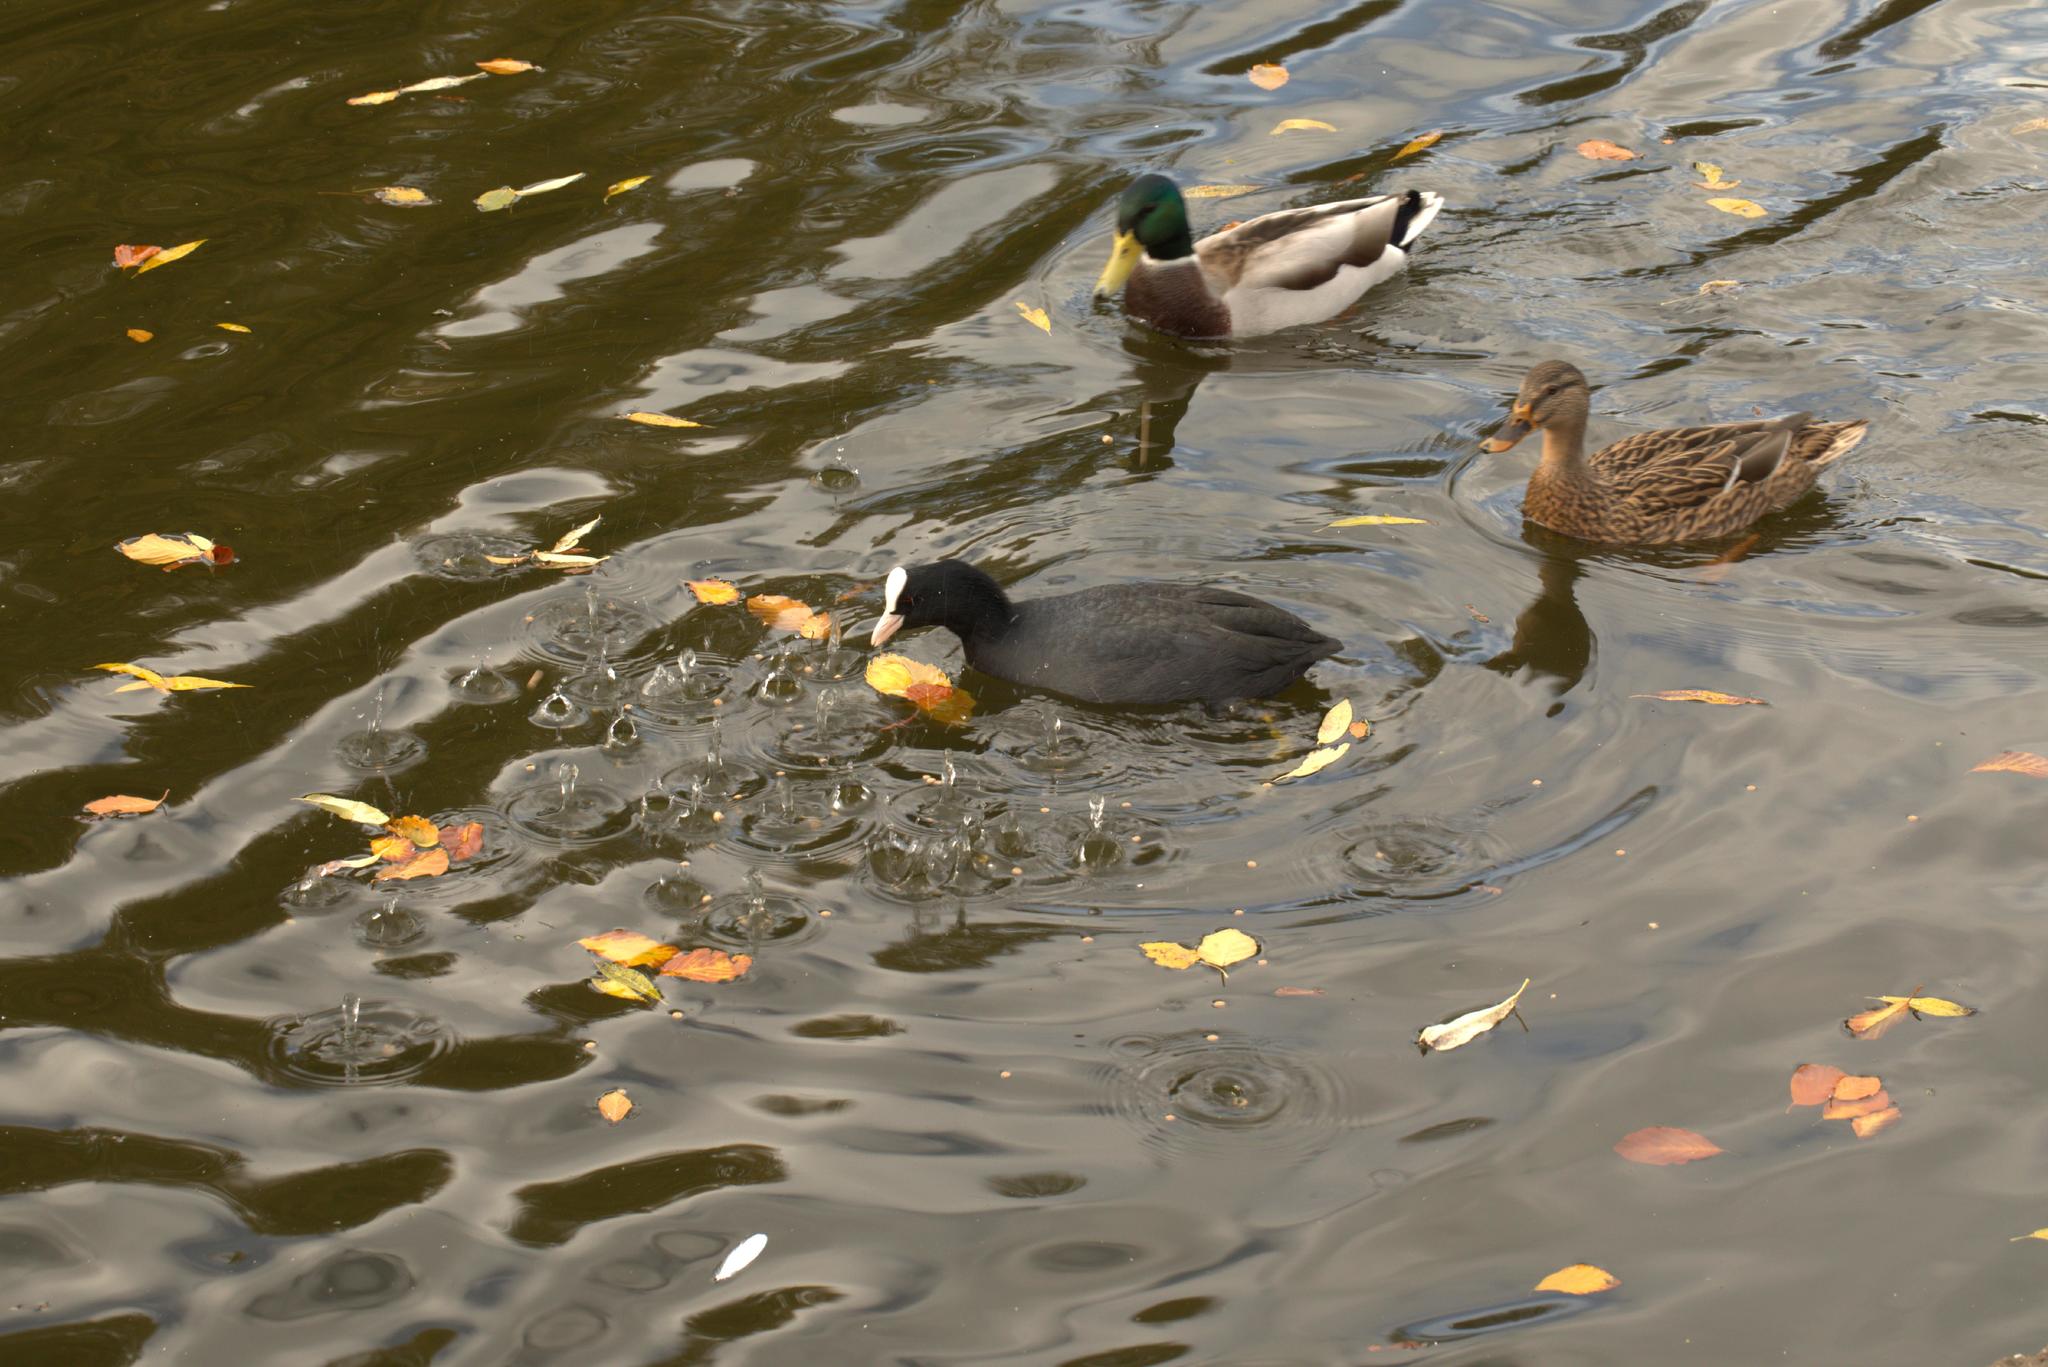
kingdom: Animalia
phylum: Chordata
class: Aves
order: Gruiformes
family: Rallidae
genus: Fulica
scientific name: Fulica atra
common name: Eurasian coot
